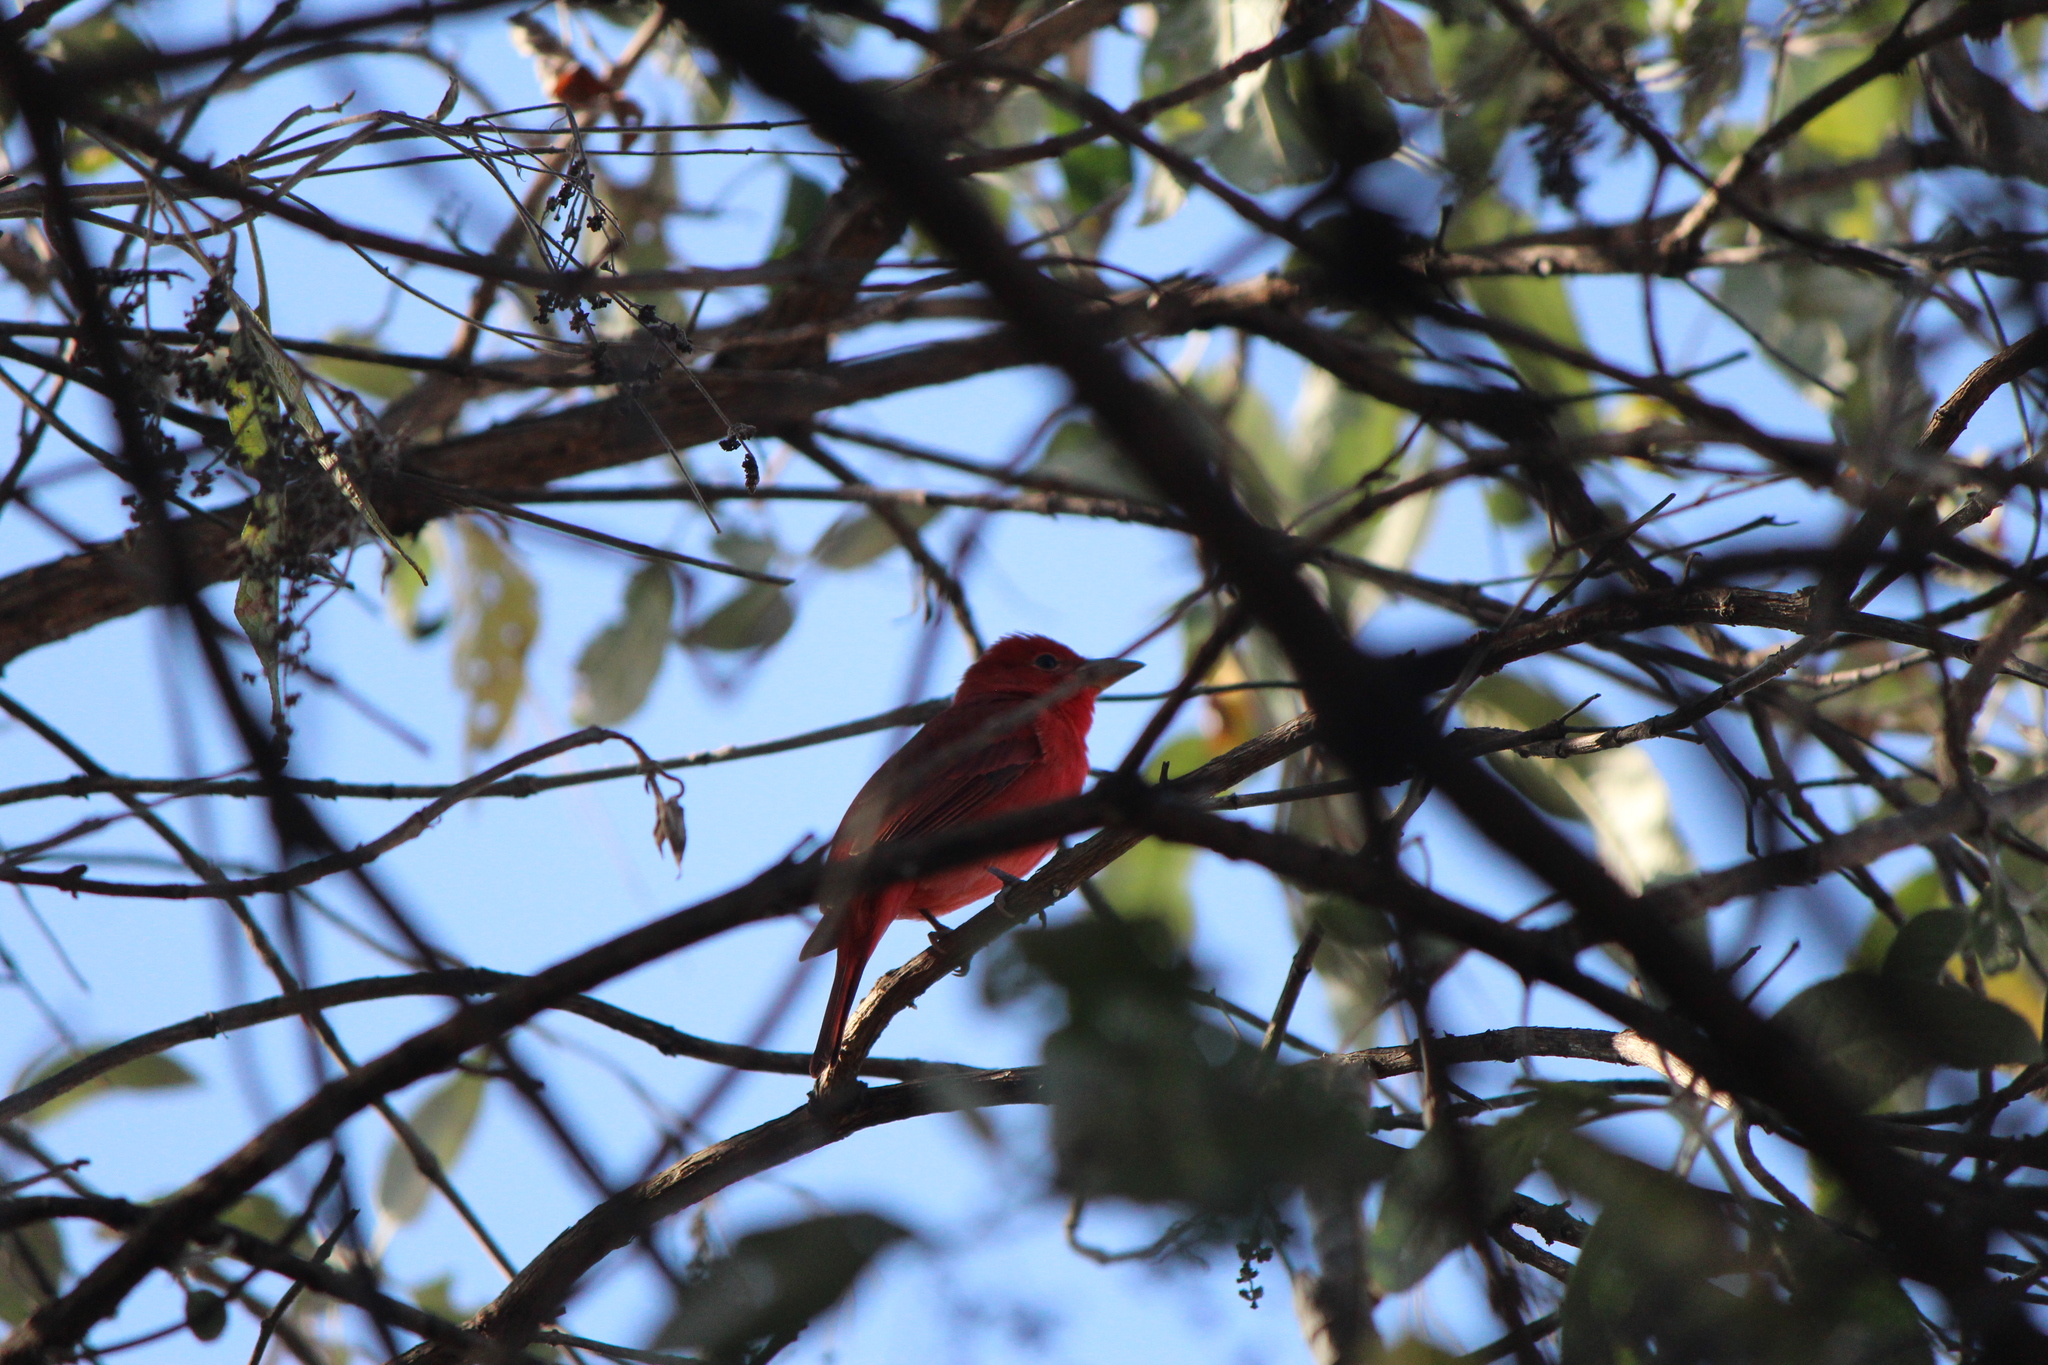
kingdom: Animalia
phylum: Chordata
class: Aves
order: Passeriformes
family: Cardinalidae
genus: Piranga
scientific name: Piranga rubra
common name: Summer tanager
